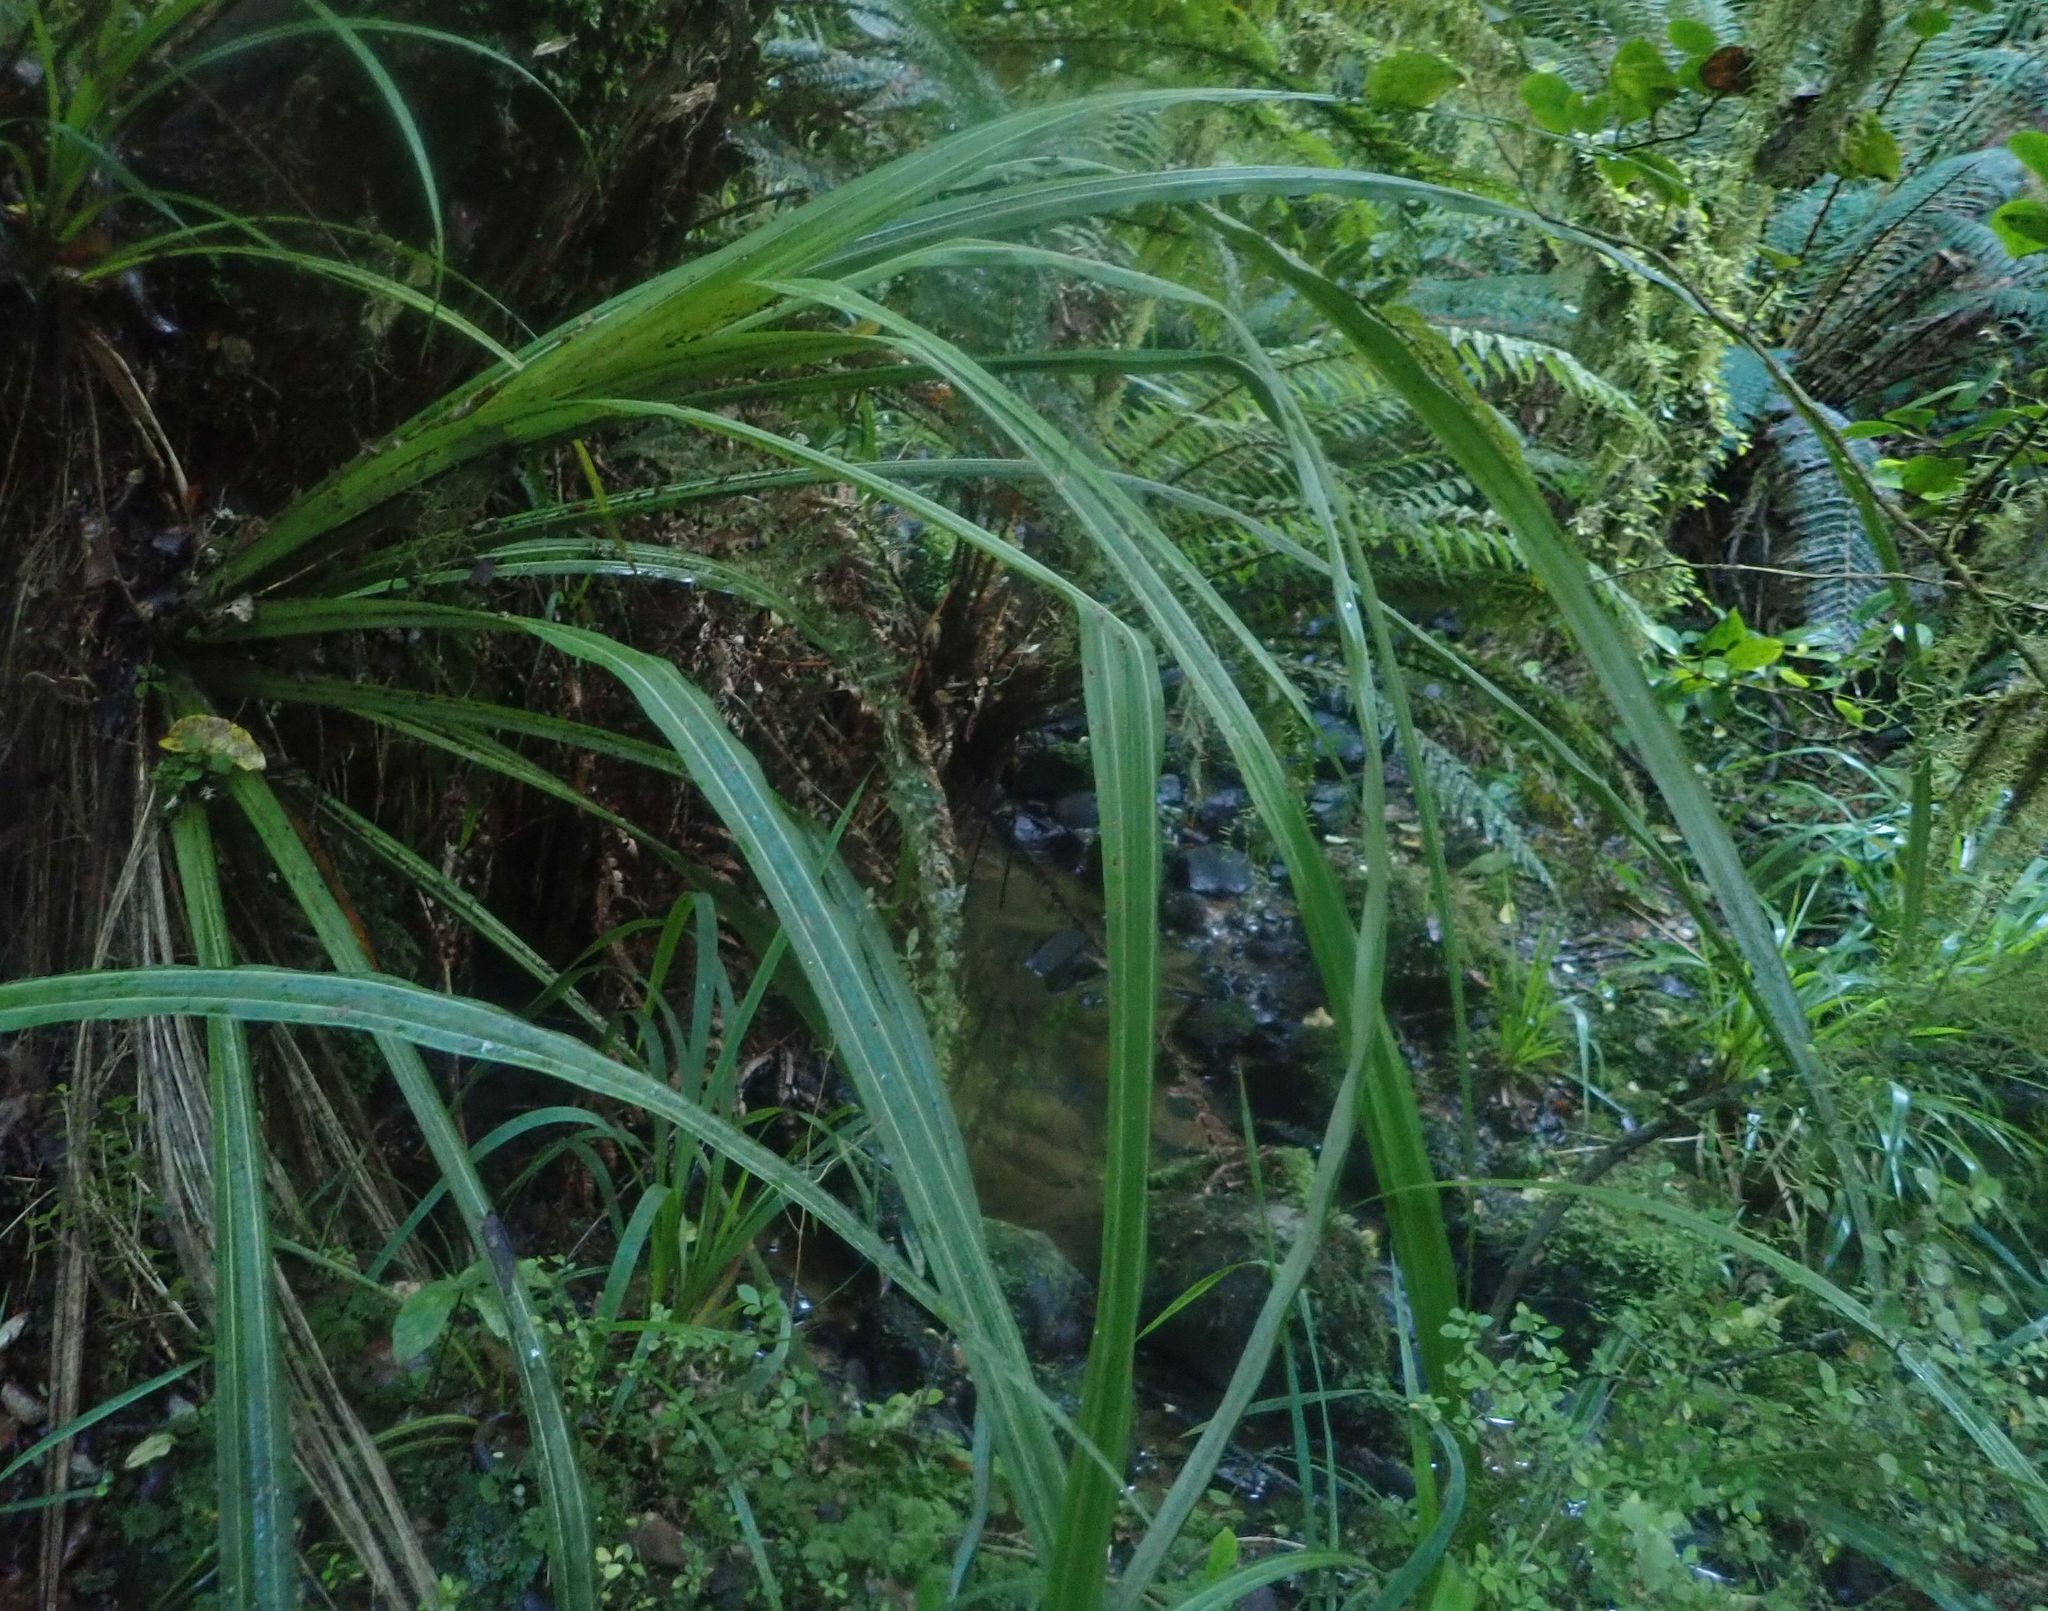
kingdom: Plantae
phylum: Tracheophyta
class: Liliopsida
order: Asparagales
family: Asteliaceae
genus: Astelia
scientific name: Astelia fragrans
